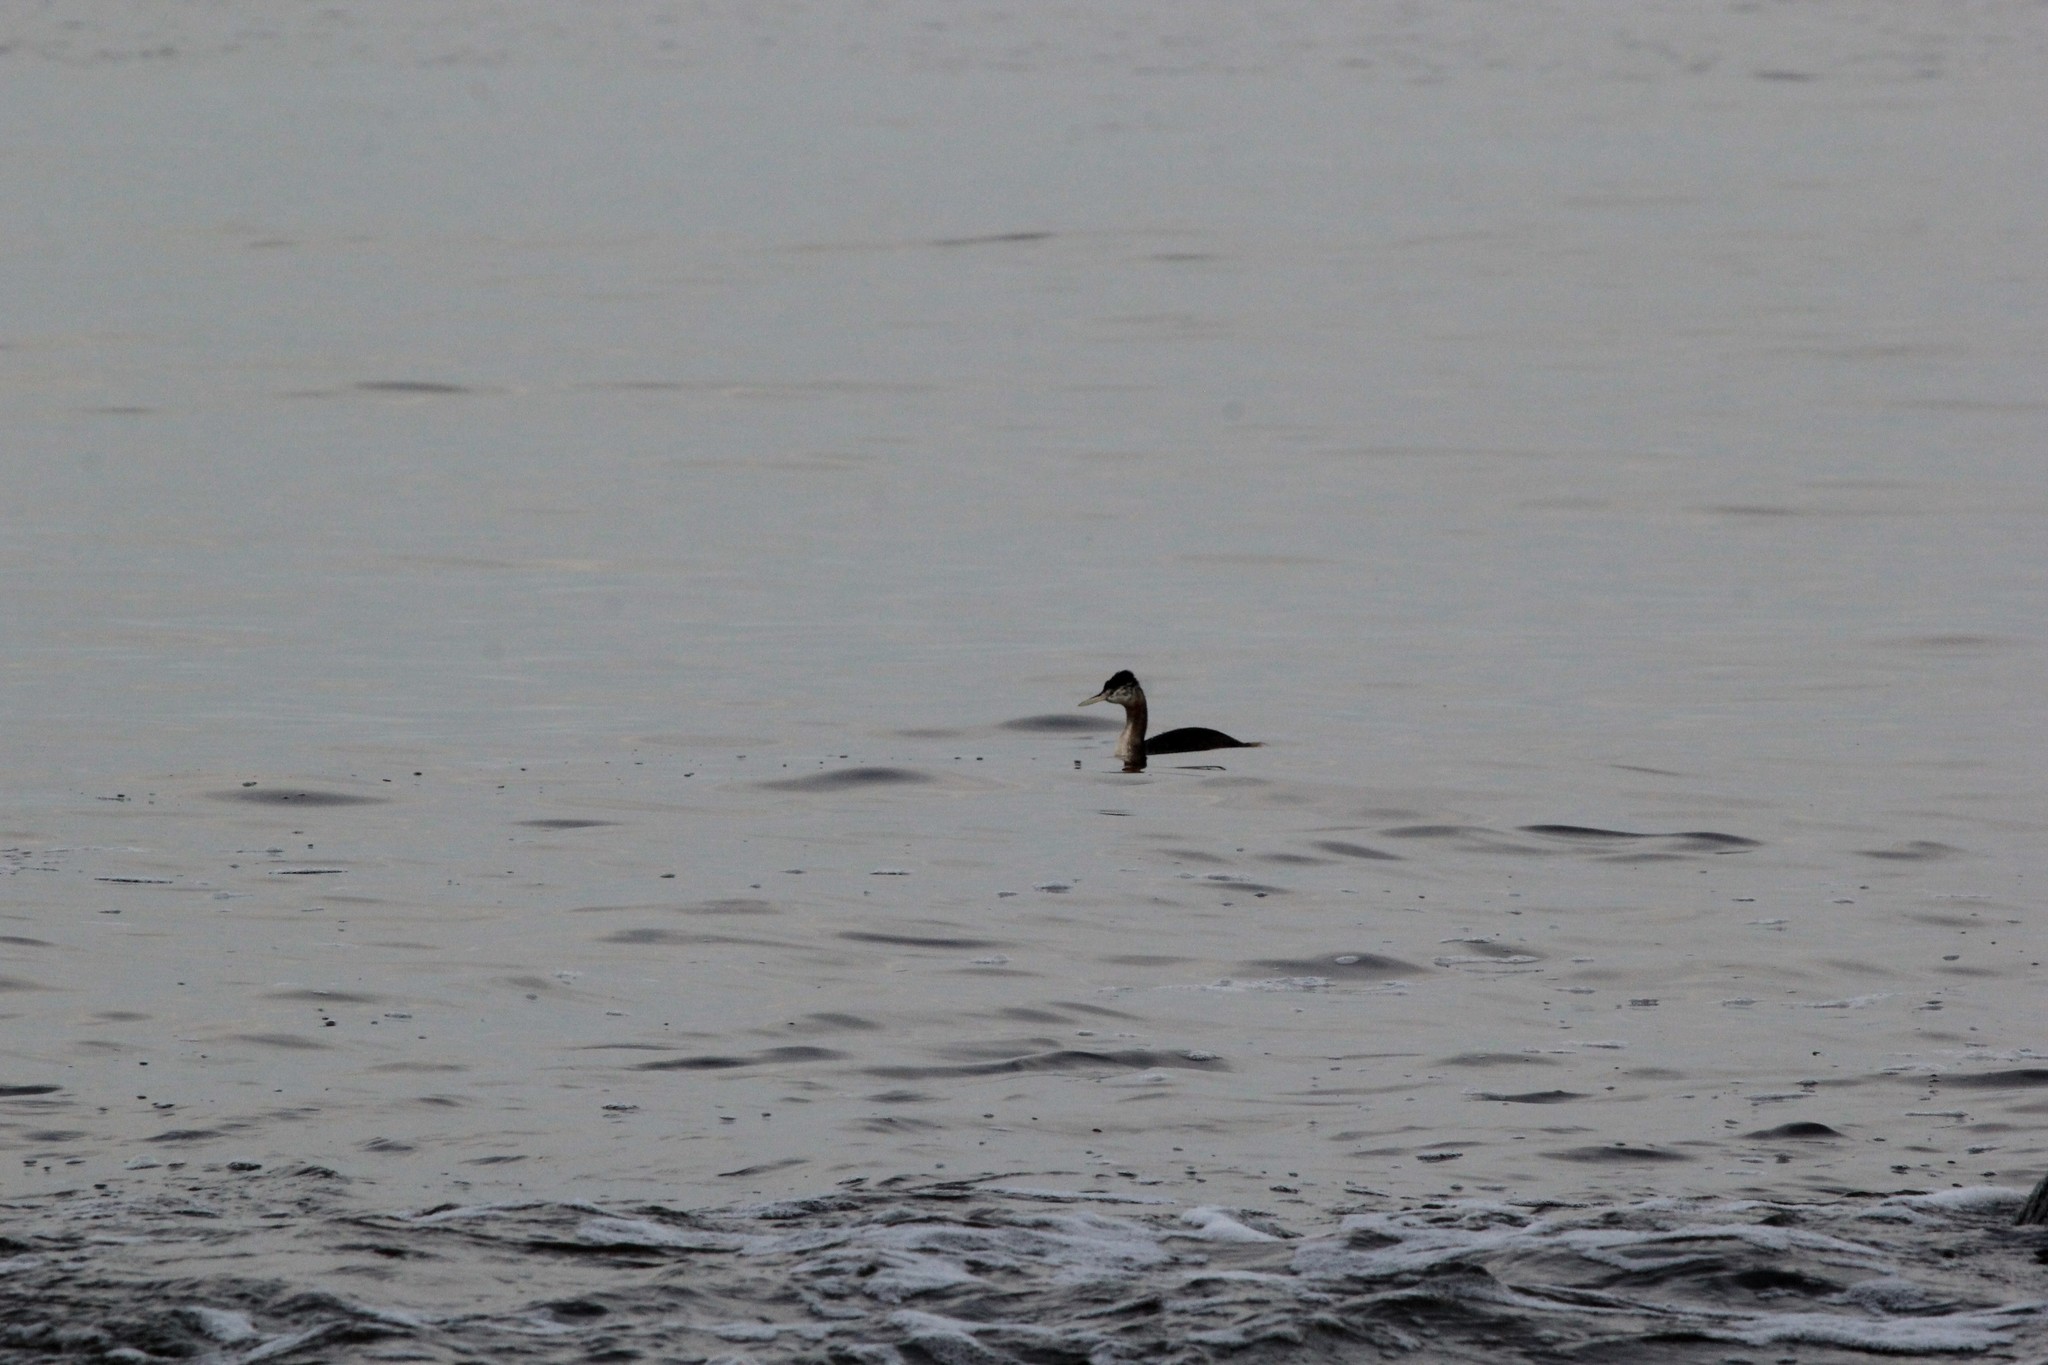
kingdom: Animalia
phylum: Chordata
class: Aves
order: Podicipediformes
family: Podicipedidae
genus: Podiceps
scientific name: Podiceps major
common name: Great grebe
